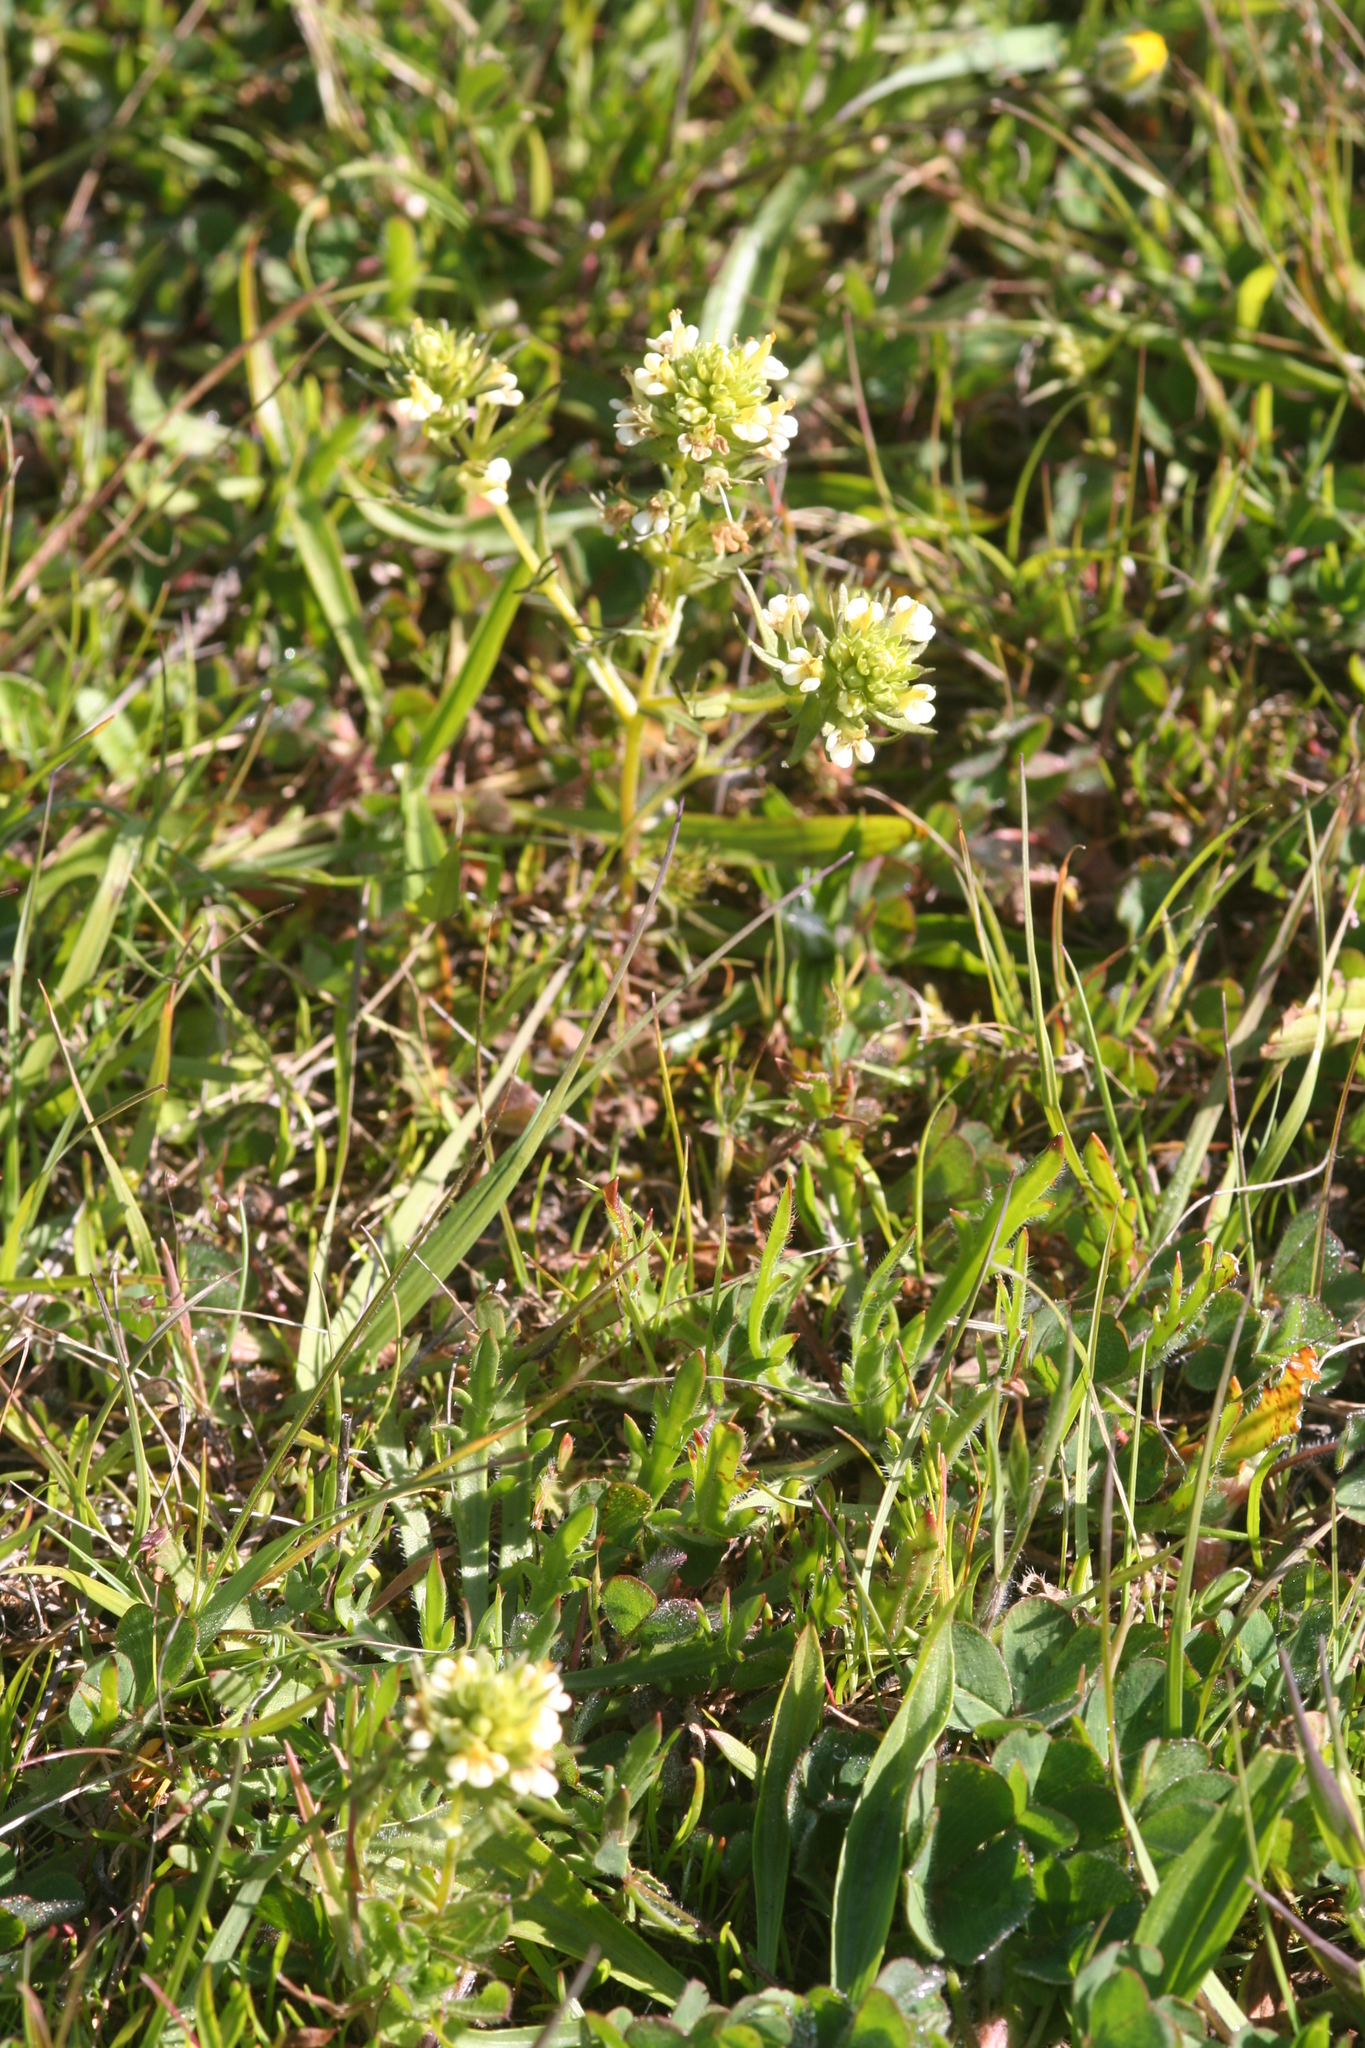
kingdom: Plantae
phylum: Tracheophyta
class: Magnoliopsida
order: Lamiales
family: Orobanchaceae
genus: Triphysaria
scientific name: Triphysaria floribunda
